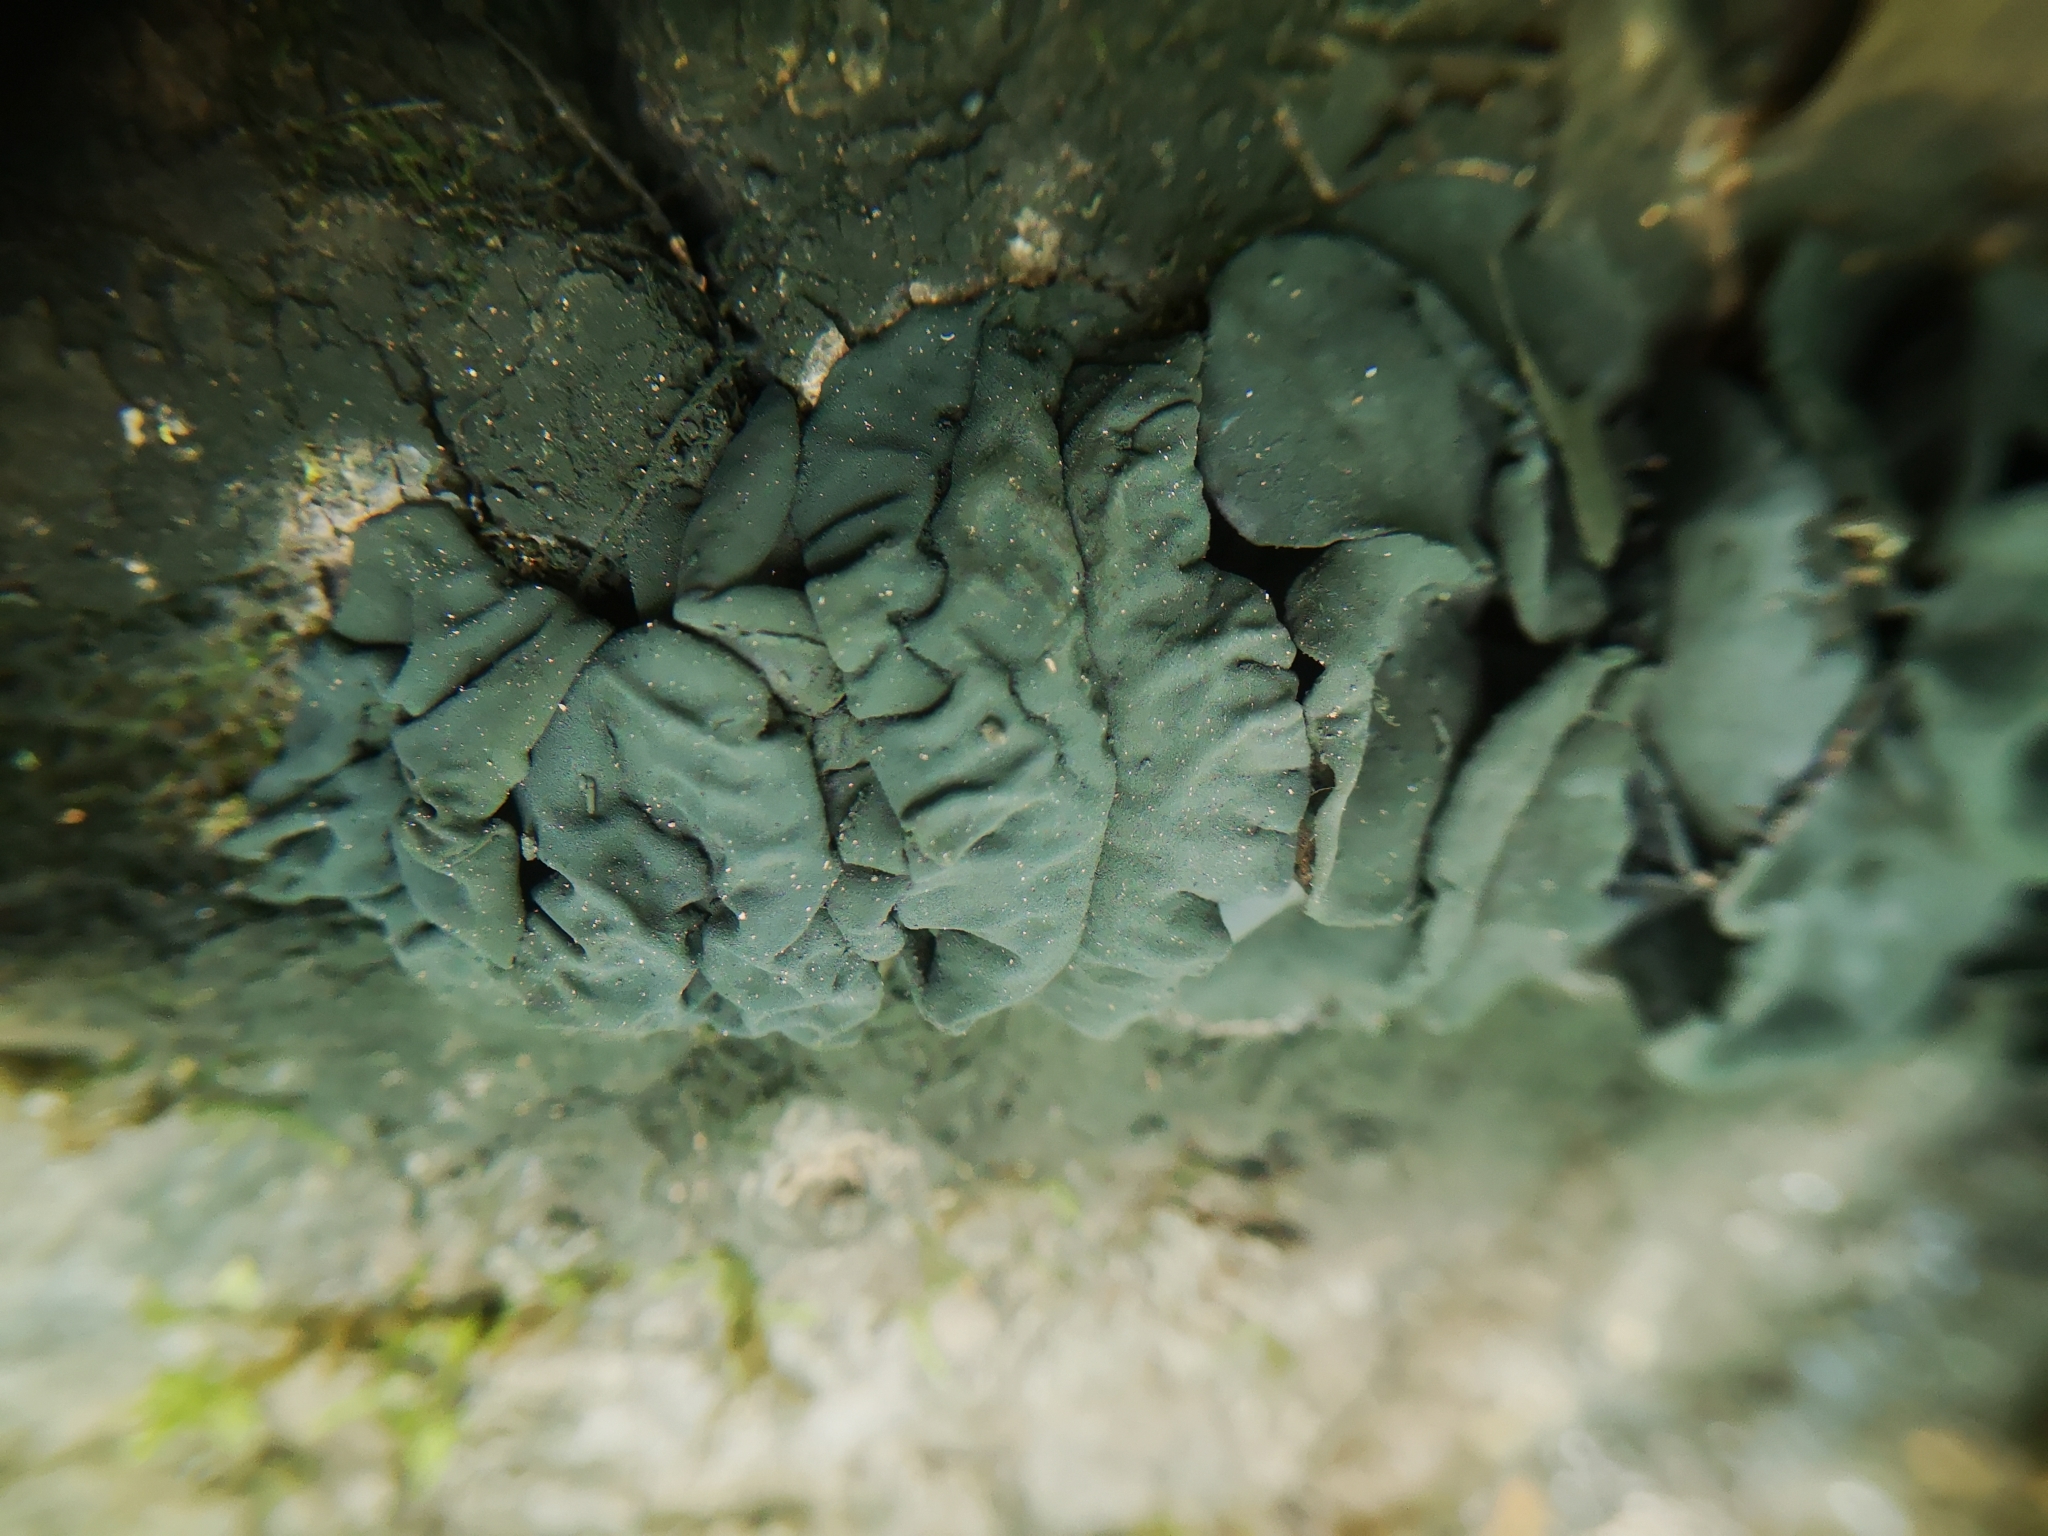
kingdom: Fungi
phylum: Ascomycota
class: Leotiomycetes
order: Phacidiales
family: Phacidiaceae
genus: Bulgaria
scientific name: Bulgaria inquinans
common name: Black bulgar
